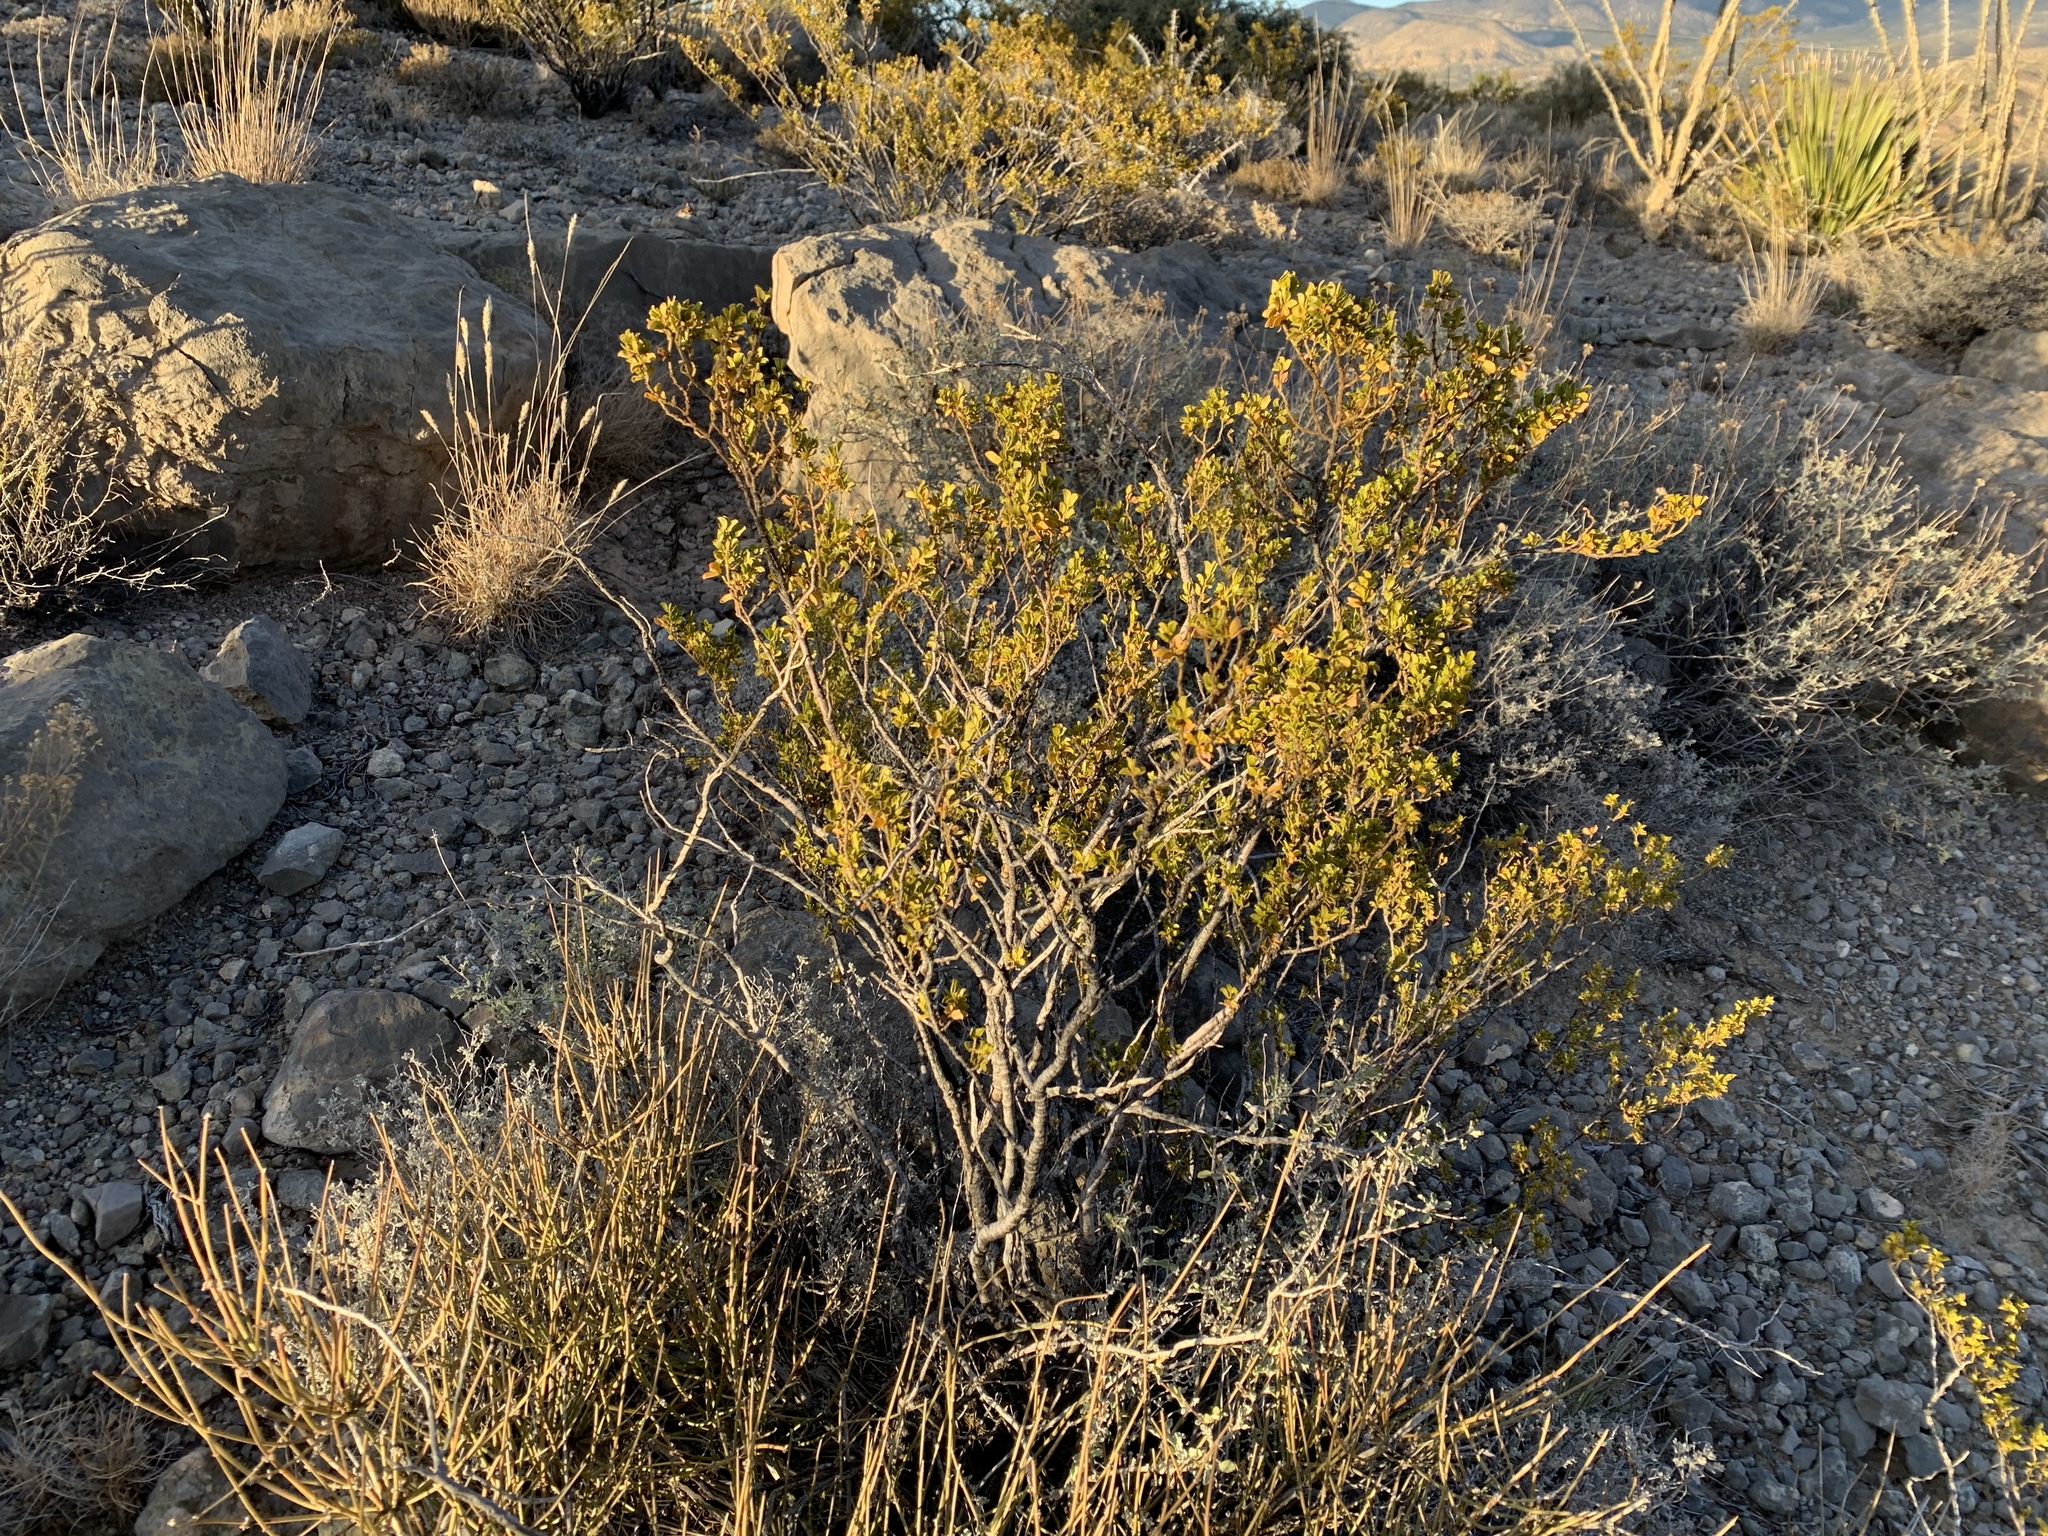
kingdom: Plantae
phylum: Tracheophyta
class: Magnoliopsida
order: Zygophyllales
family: Zygophyllaceae
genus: Larrea
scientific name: Larrea tridentata
